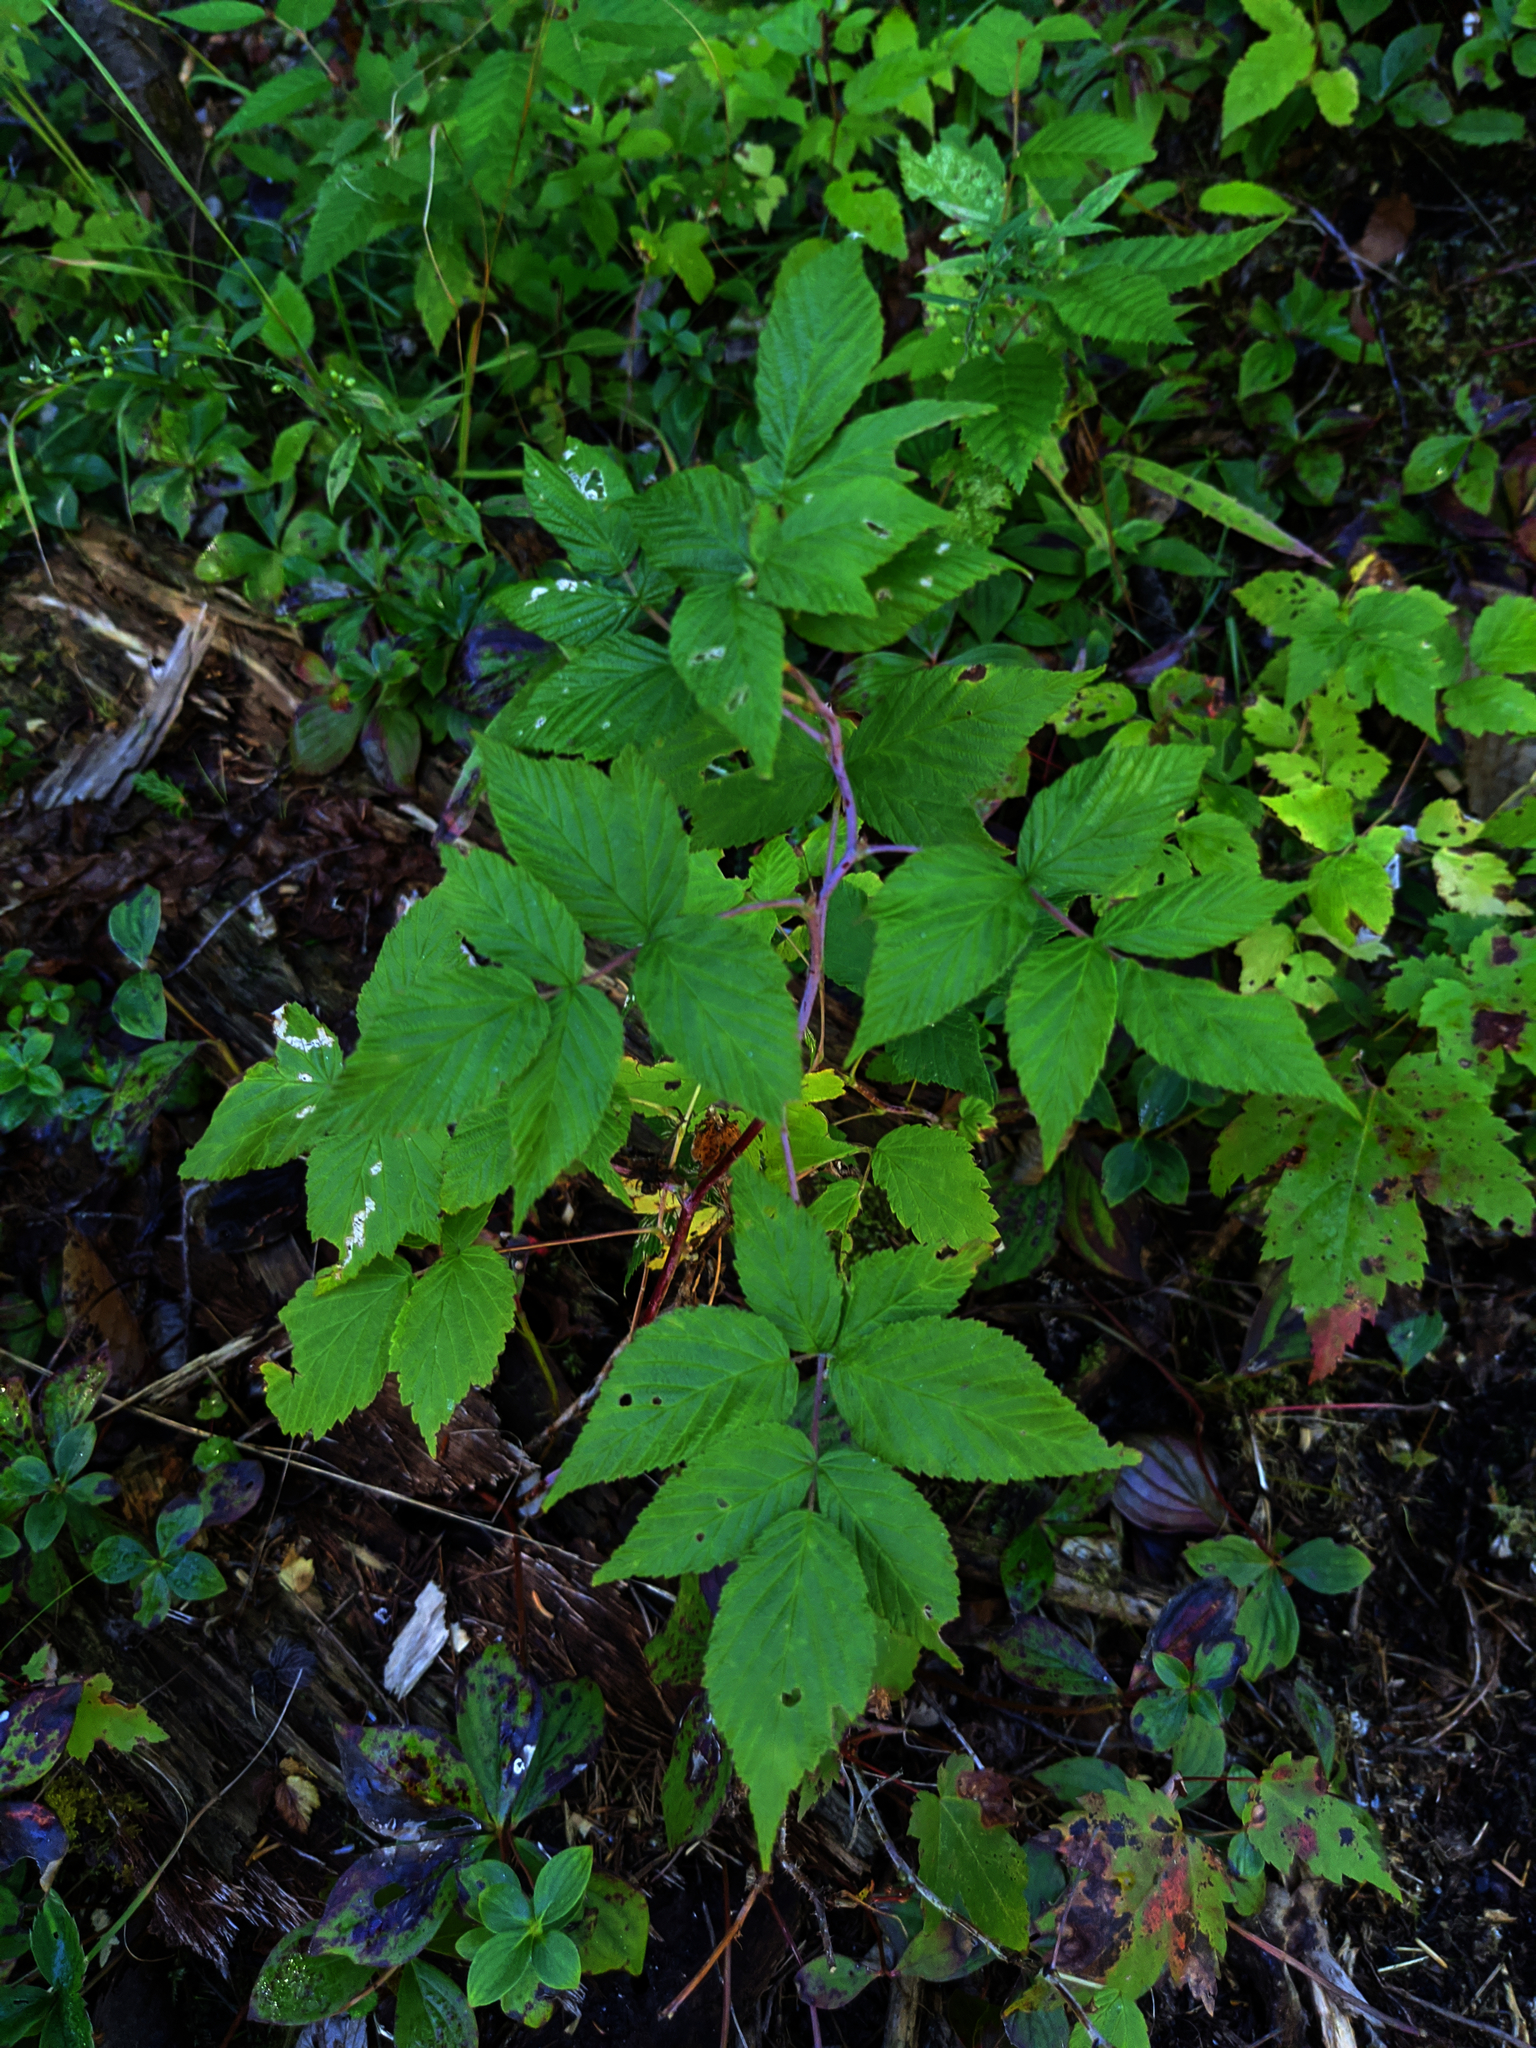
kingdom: Plantae
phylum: Tracheophyta
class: Magnoliopsida
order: Rosales
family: Rosaceae
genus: Rubus
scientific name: Rubus idaeus
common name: Raspberry
